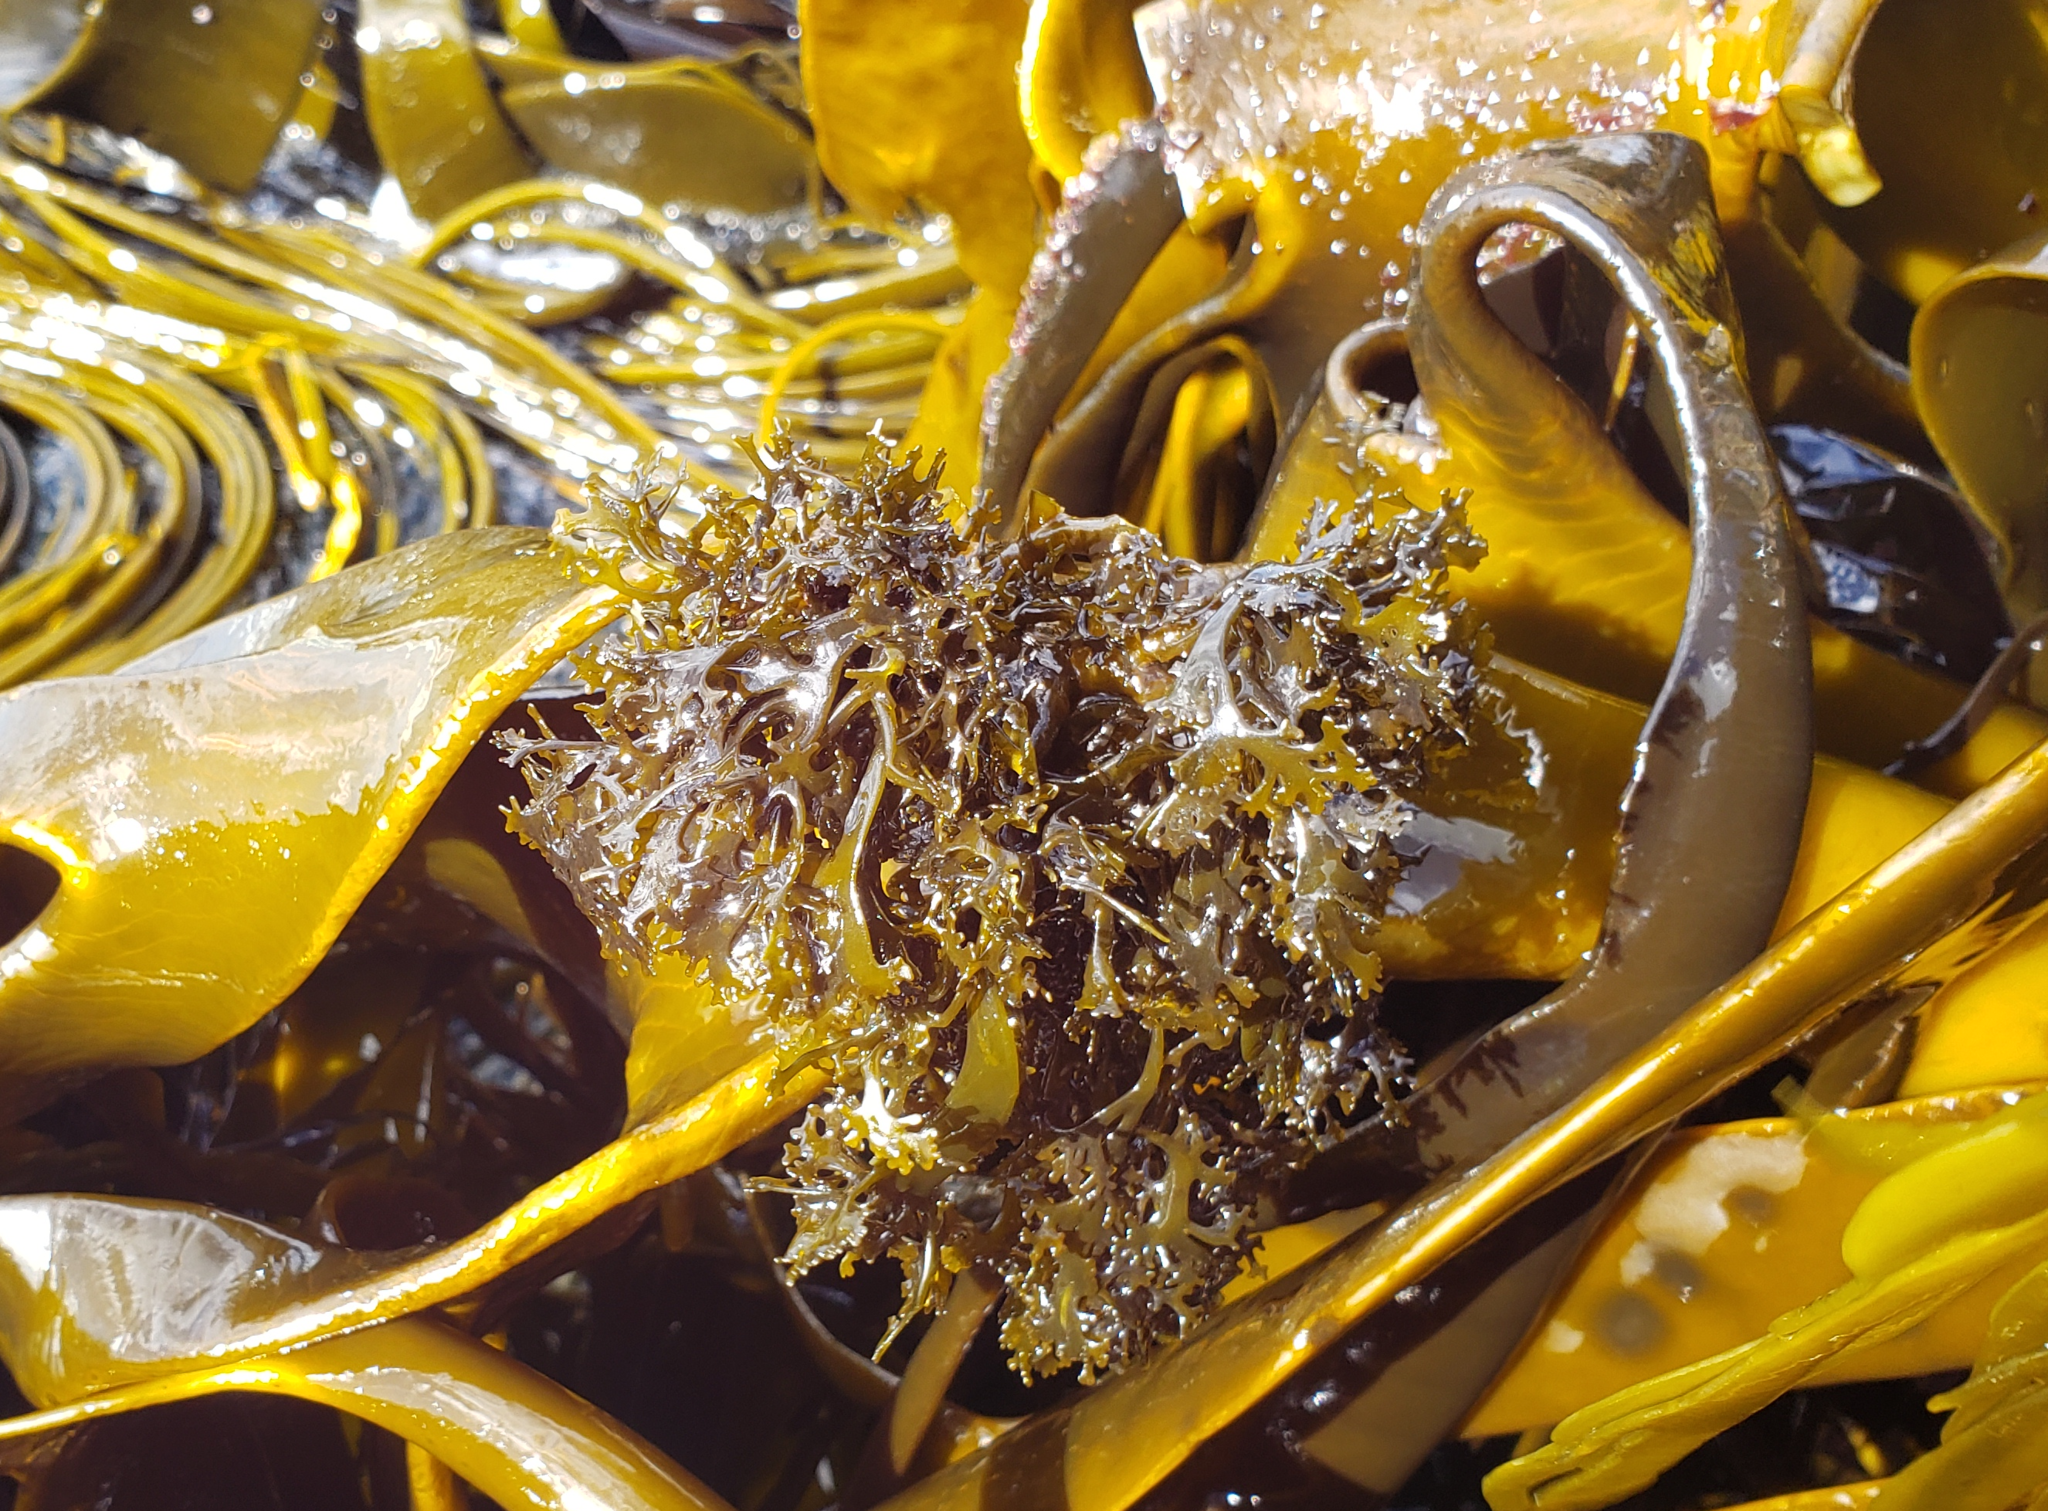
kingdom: Chromista
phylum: Ochrophyta
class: Phaeophyceae
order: Fucales
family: Durvillaeaceae
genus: Durvillaea
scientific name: Durvillaea antarctica
